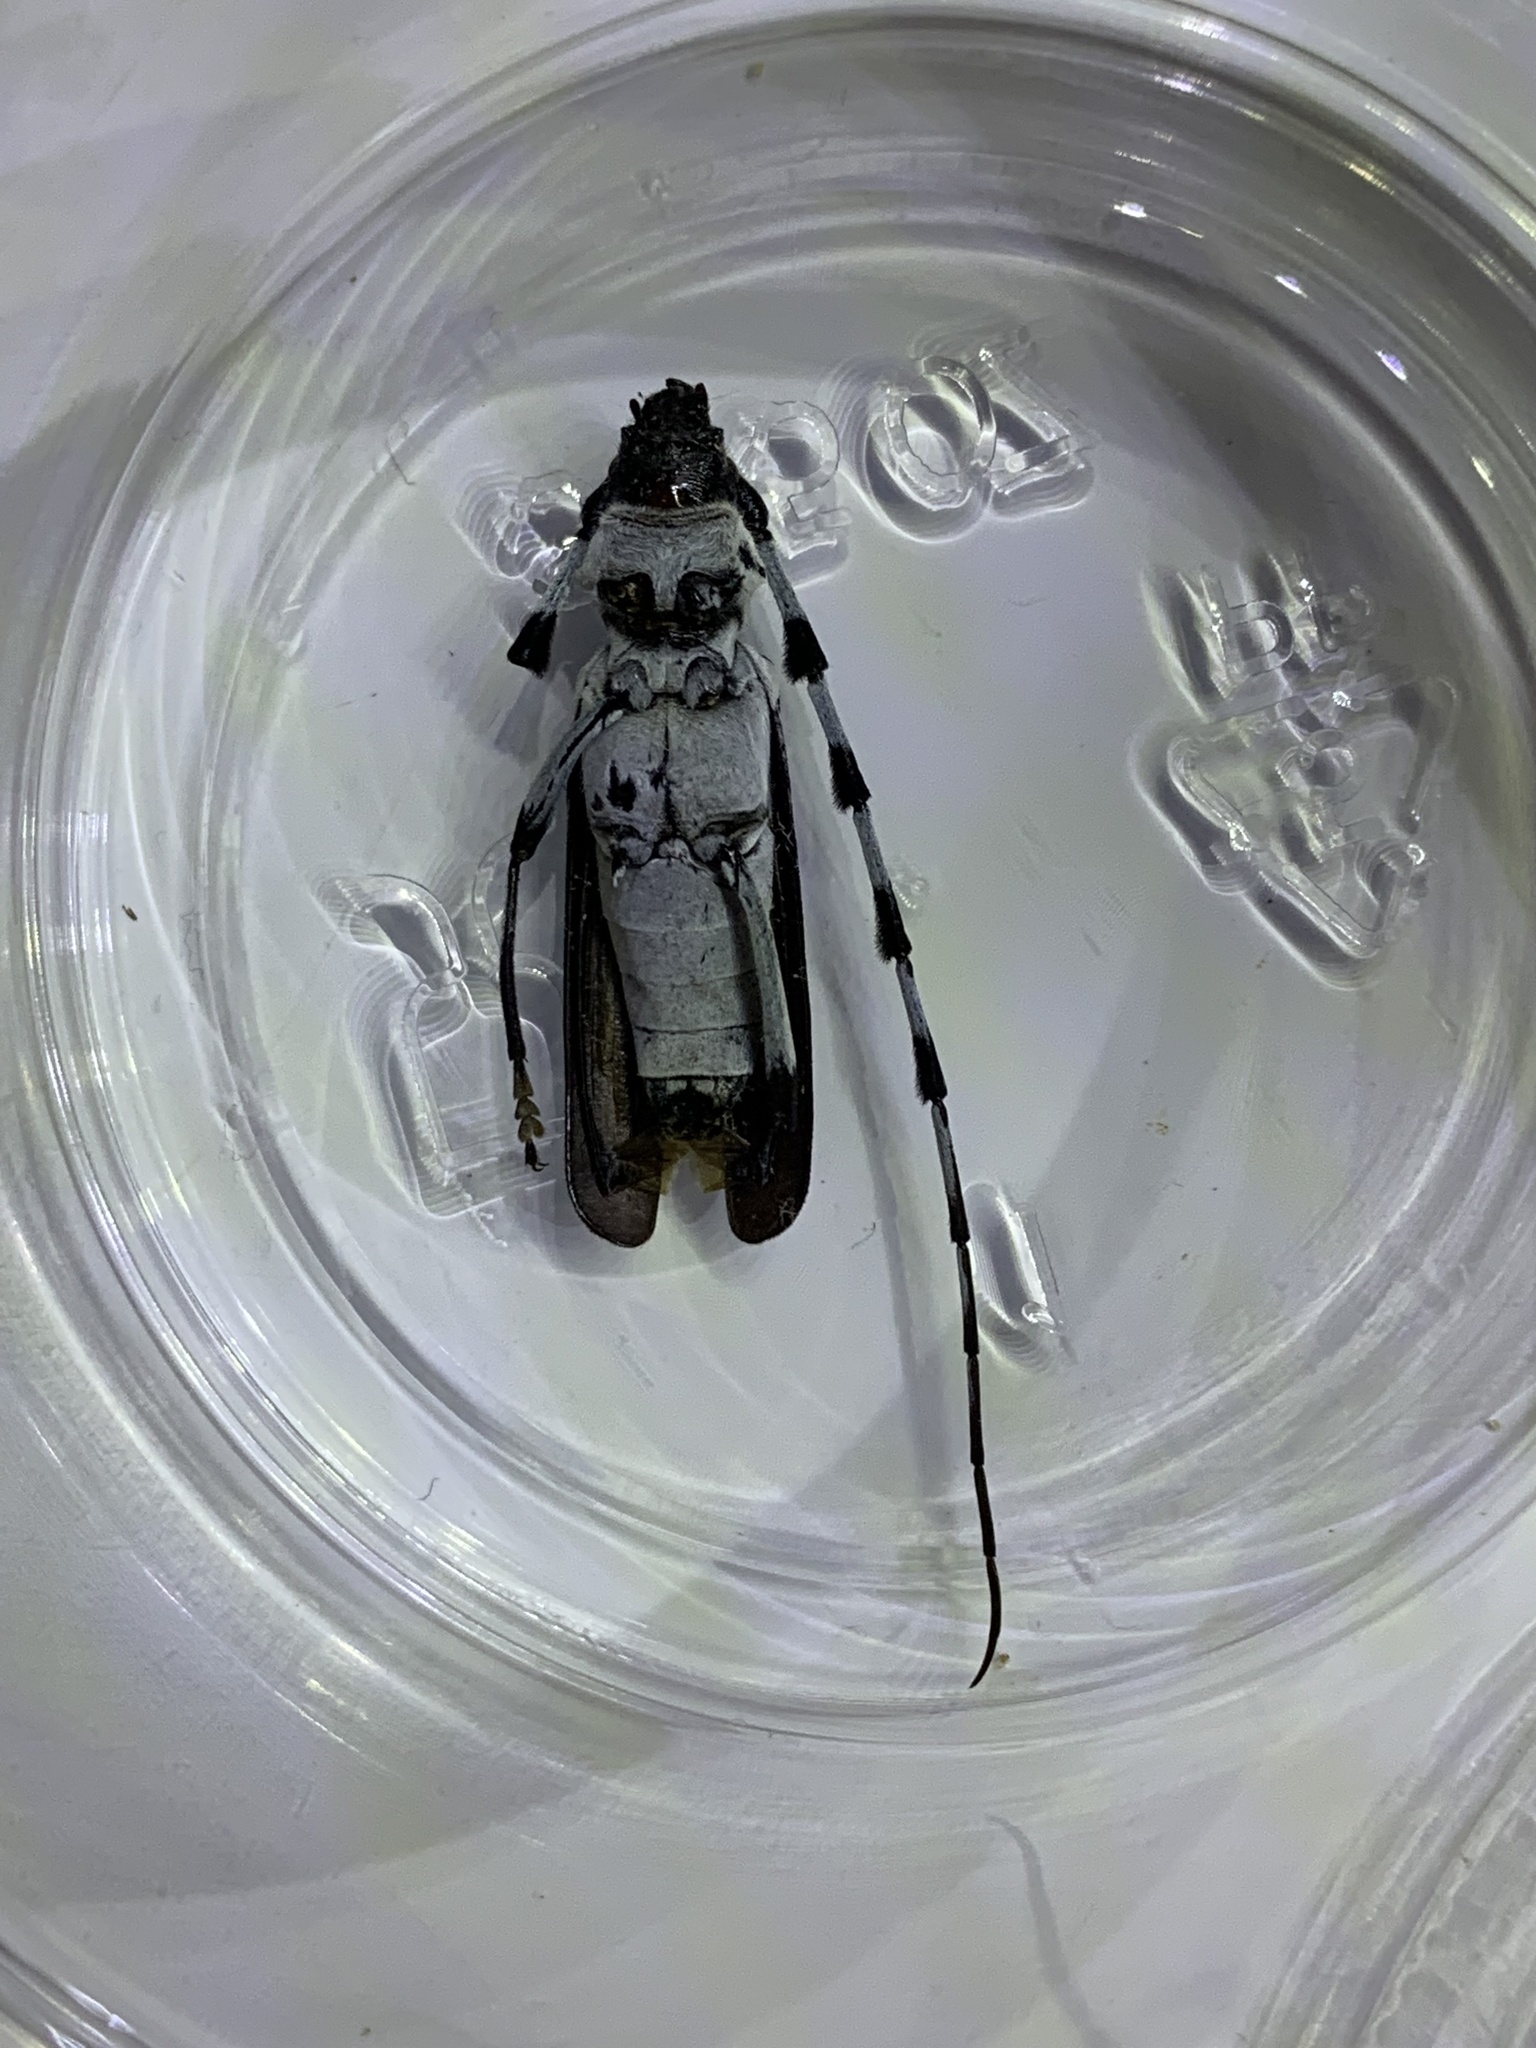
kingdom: Animalia
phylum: Arthropoda
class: Insecta
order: Coleoptera
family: Cerambycidae
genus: Rosalia
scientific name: Rosalia funebris
